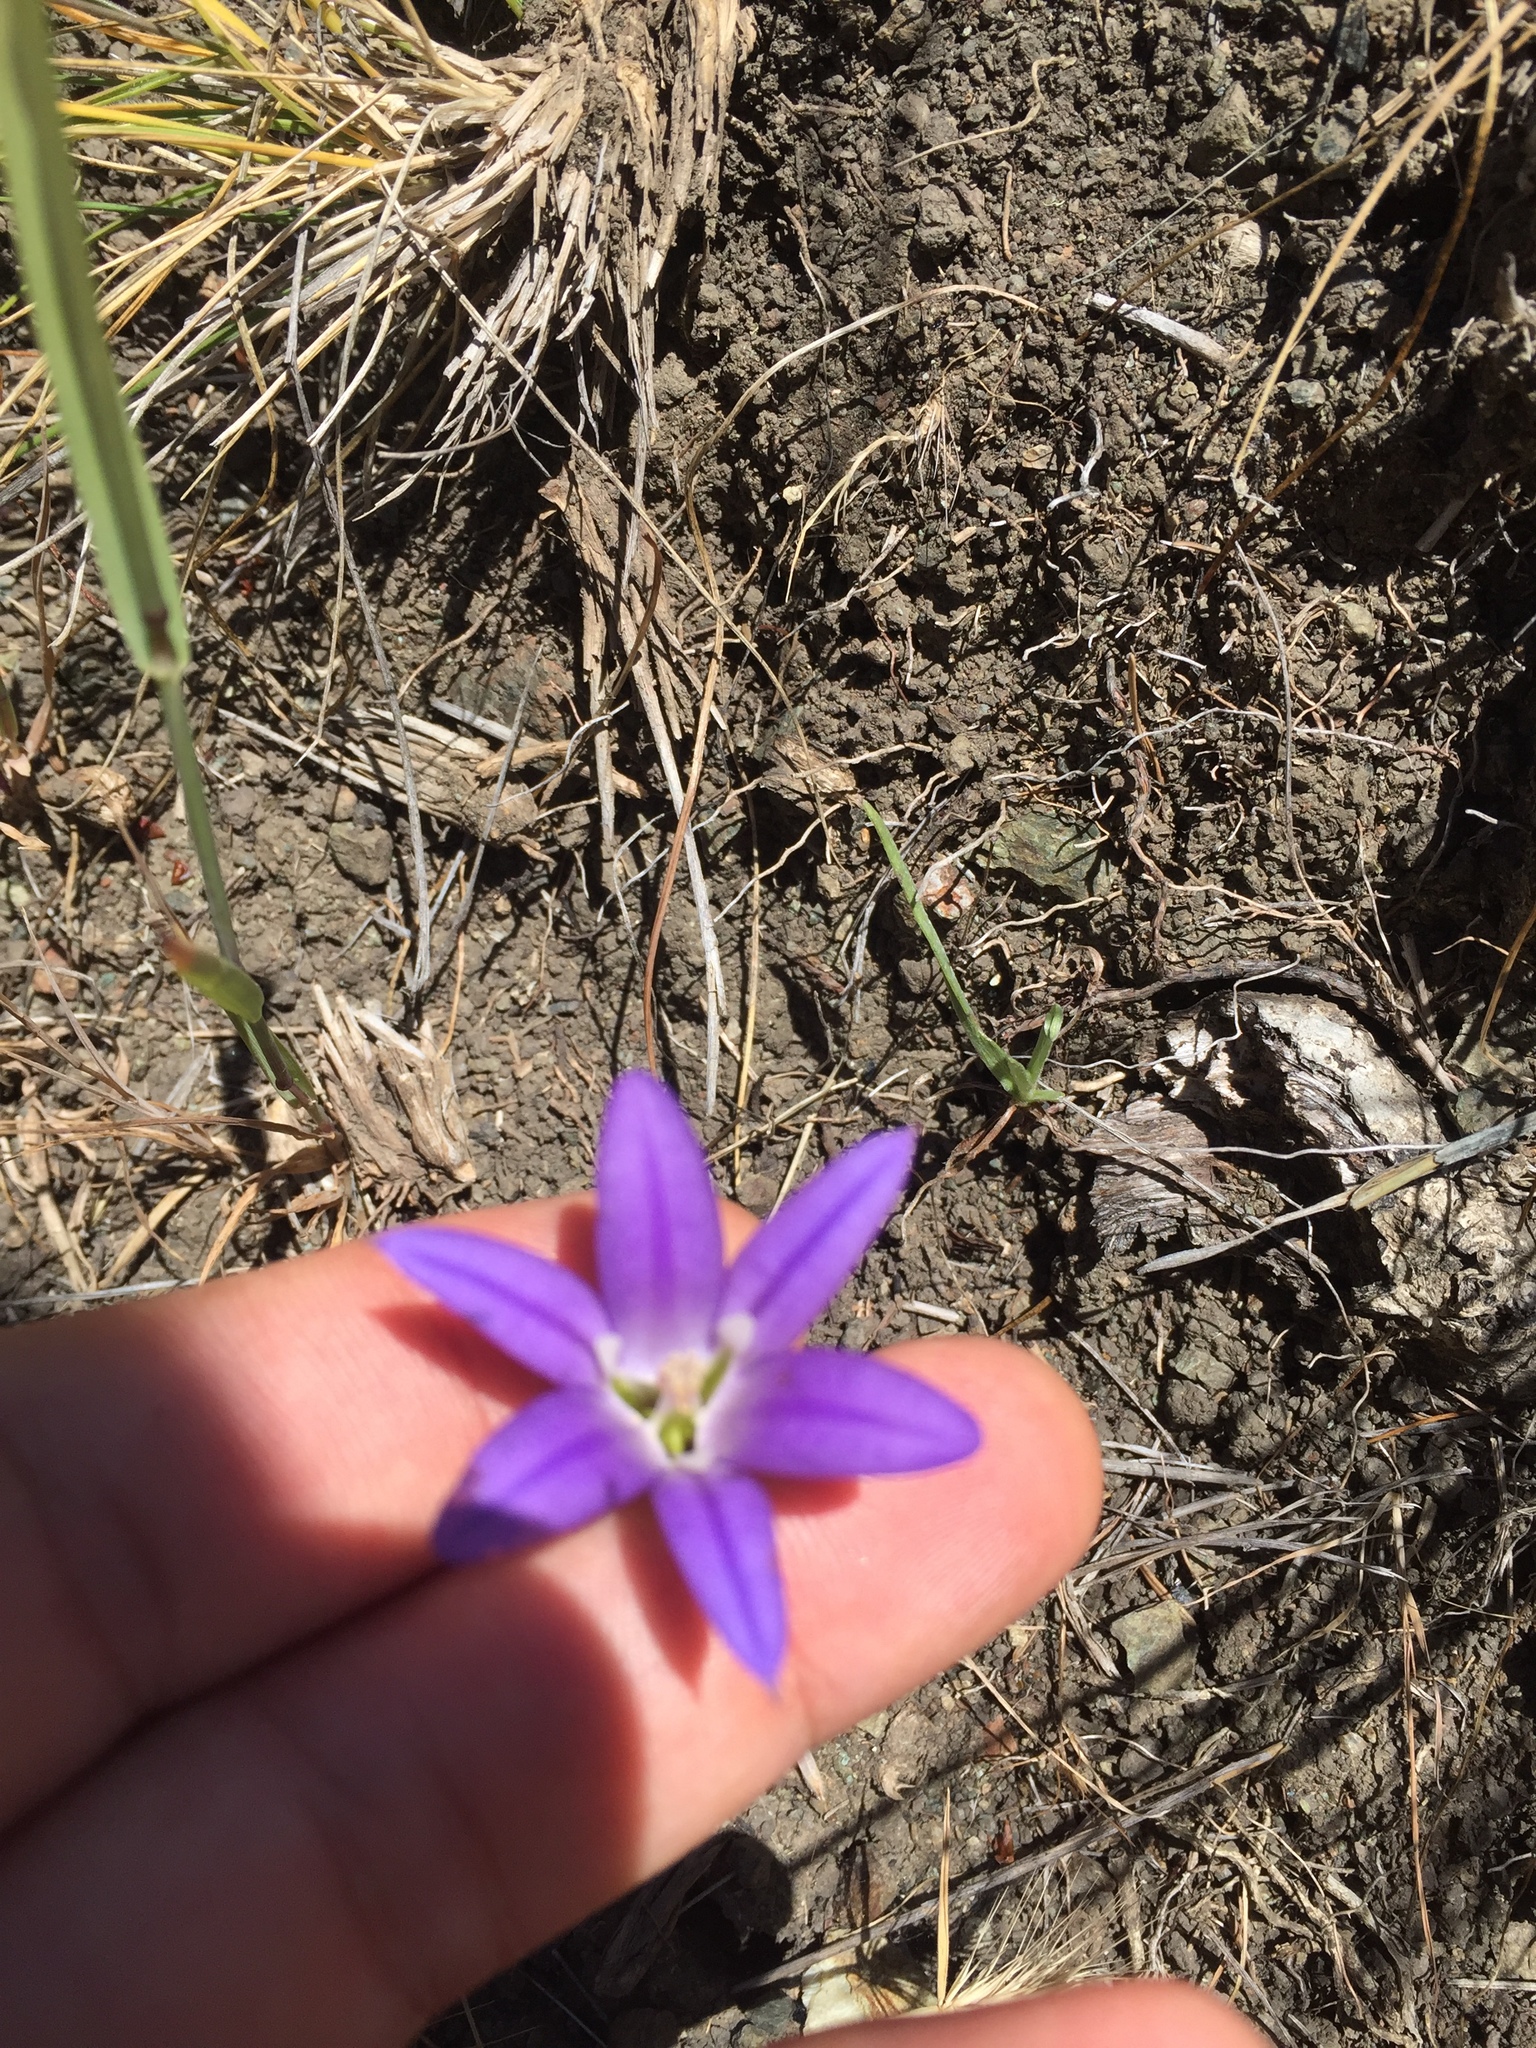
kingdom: Plantae
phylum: Tracheophyta
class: Liliopsida
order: Asparagales
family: Asparagaceae
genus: Brodiaea
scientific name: Brodiaea elegans
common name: Elegant cluster-lily
